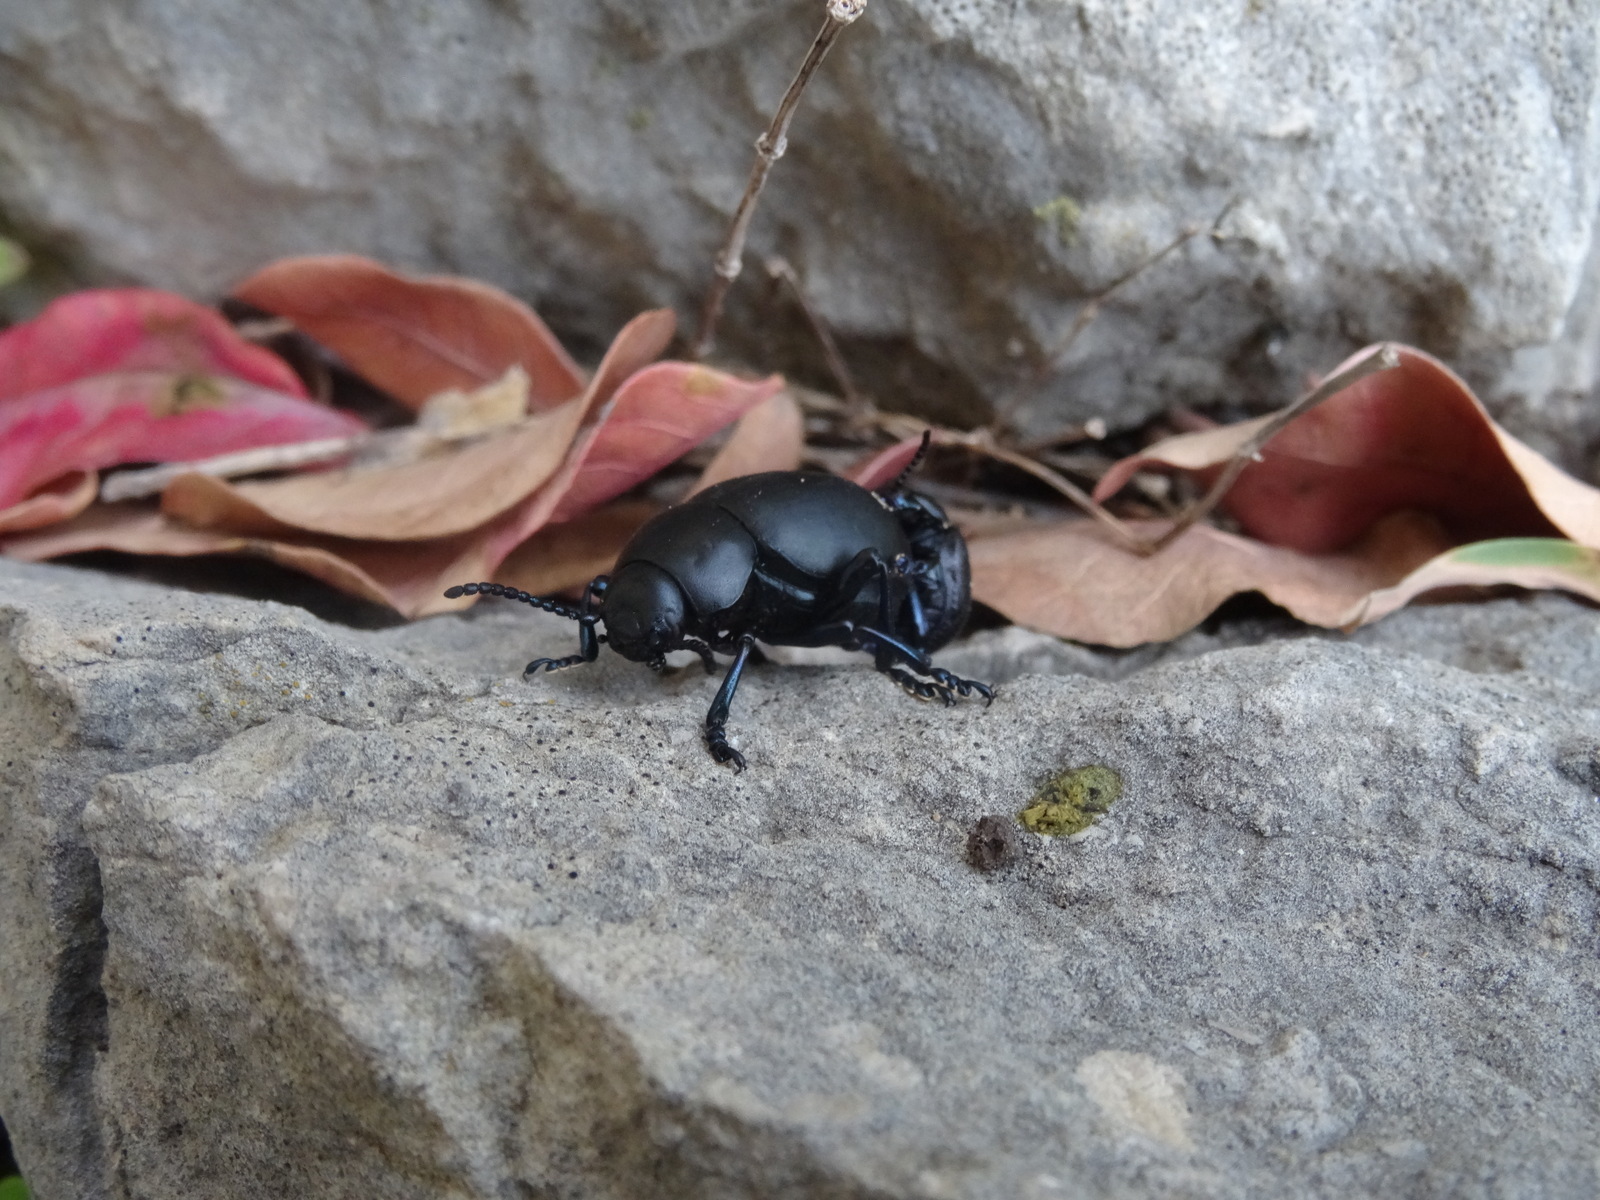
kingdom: Animalia
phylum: Arthropoda
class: Insecta
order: Coleoptera
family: Chrysomelidae
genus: Timarcha
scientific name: Timarcha tenebricosa
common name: Bloody-nosed beetle
